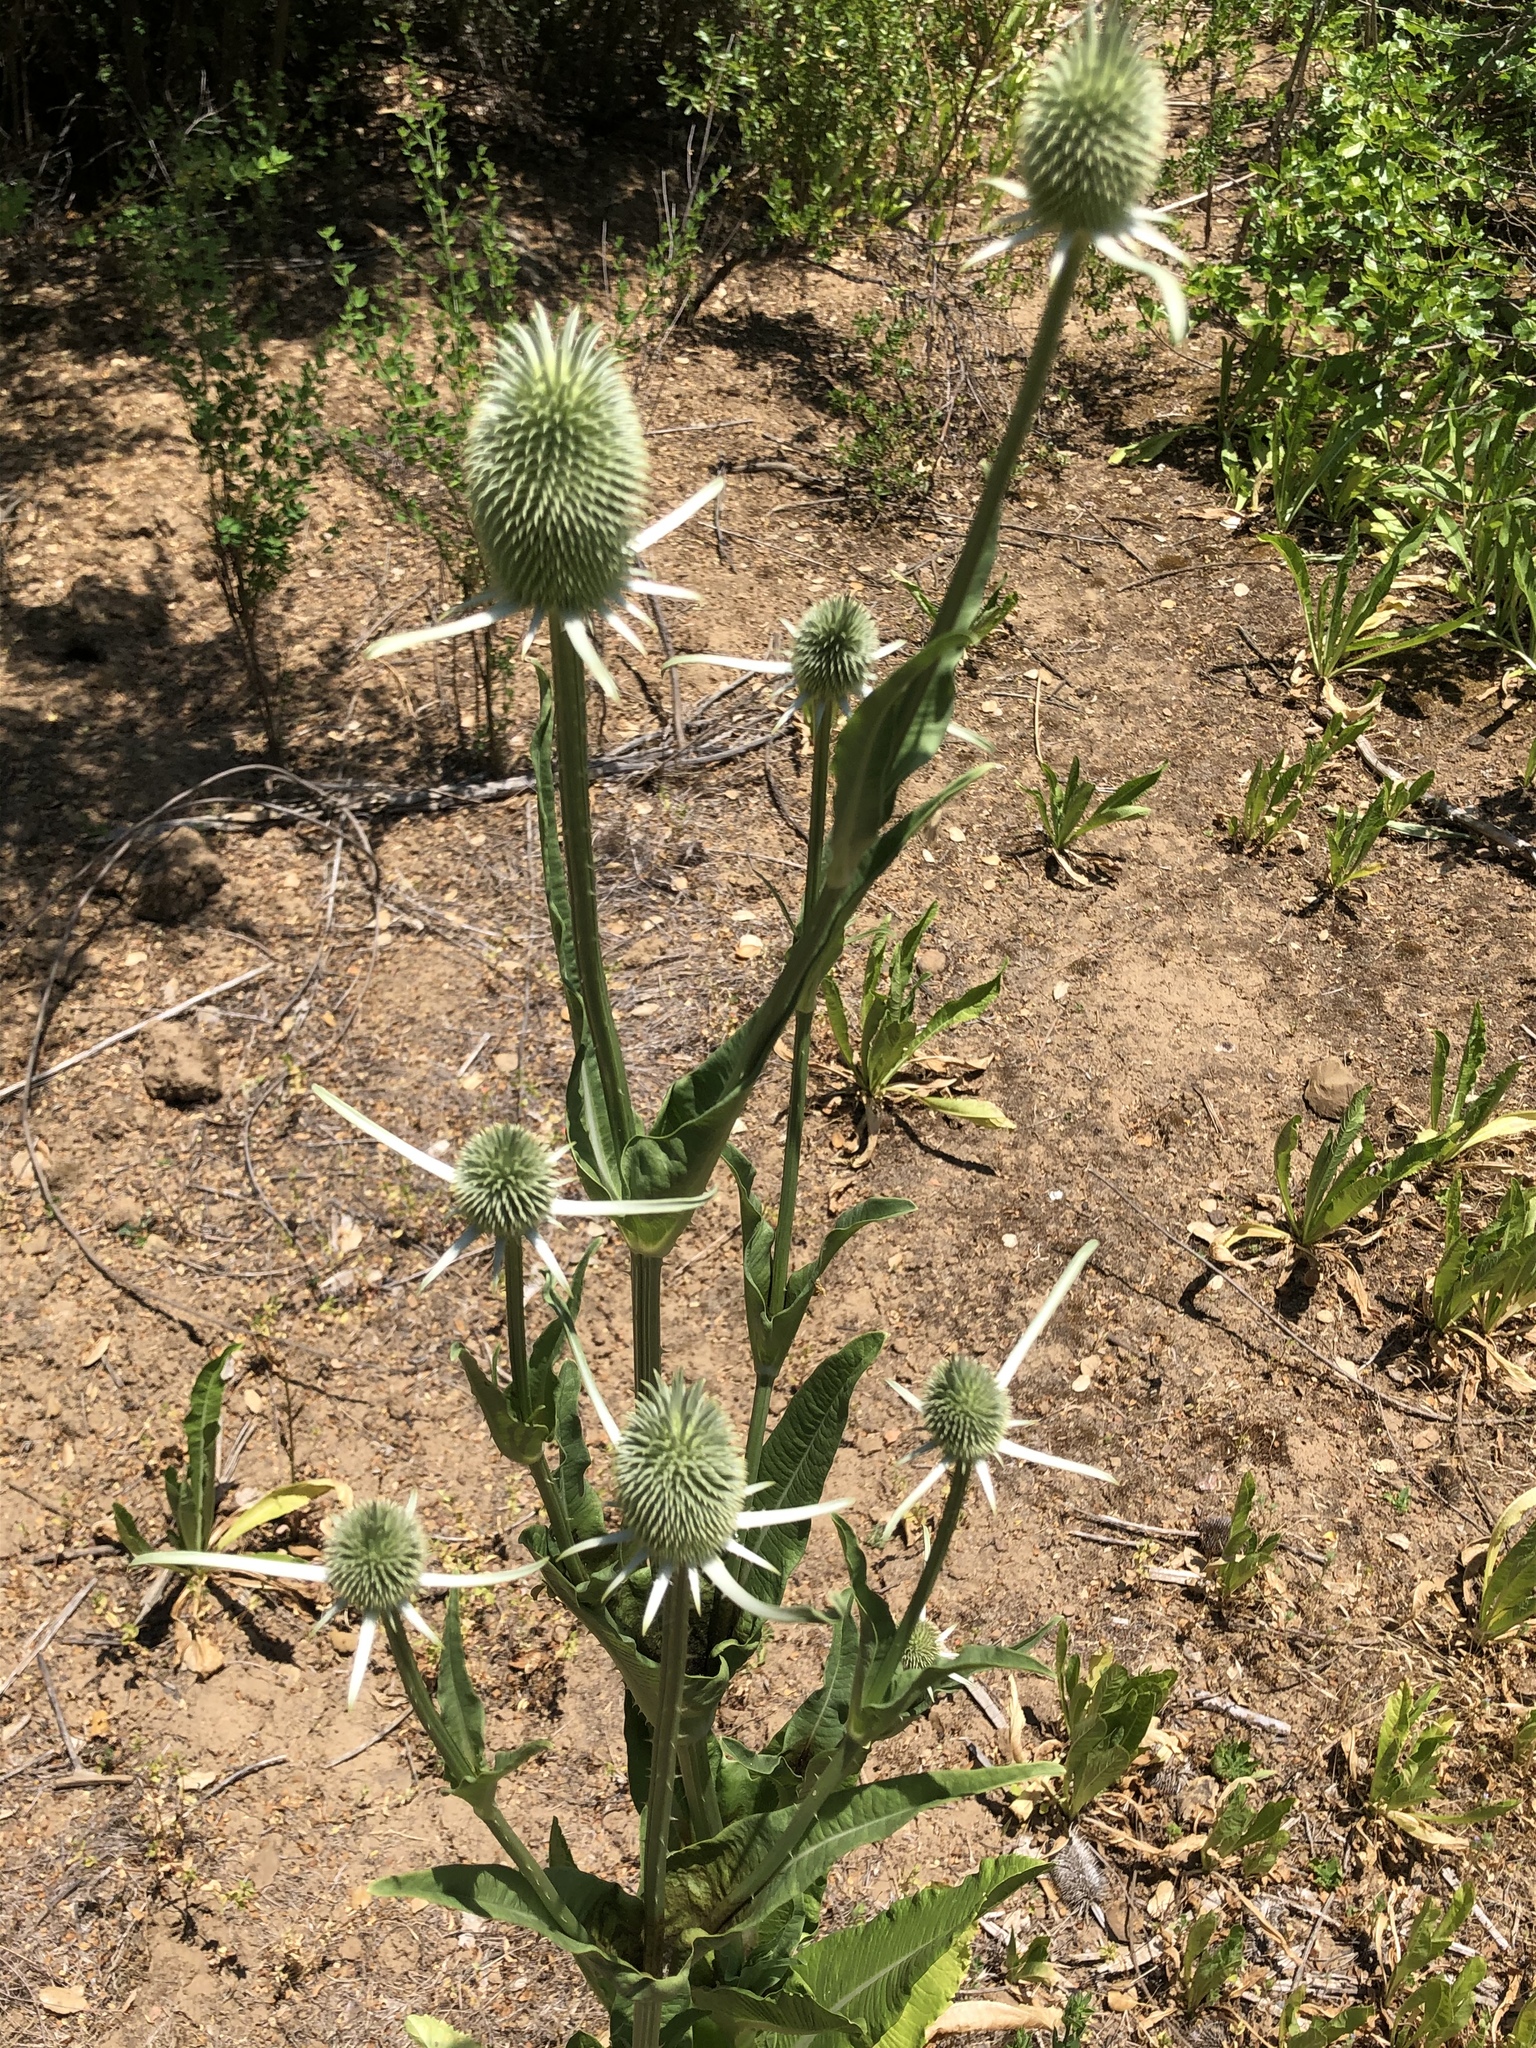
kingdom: Plantae
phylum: Tracheophyta
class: Magnoliopsida
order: Dipsacales
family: Caprifoliaceae
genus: Dipsacus
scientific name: Dipsacus sativus
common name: Fuller's teasel
